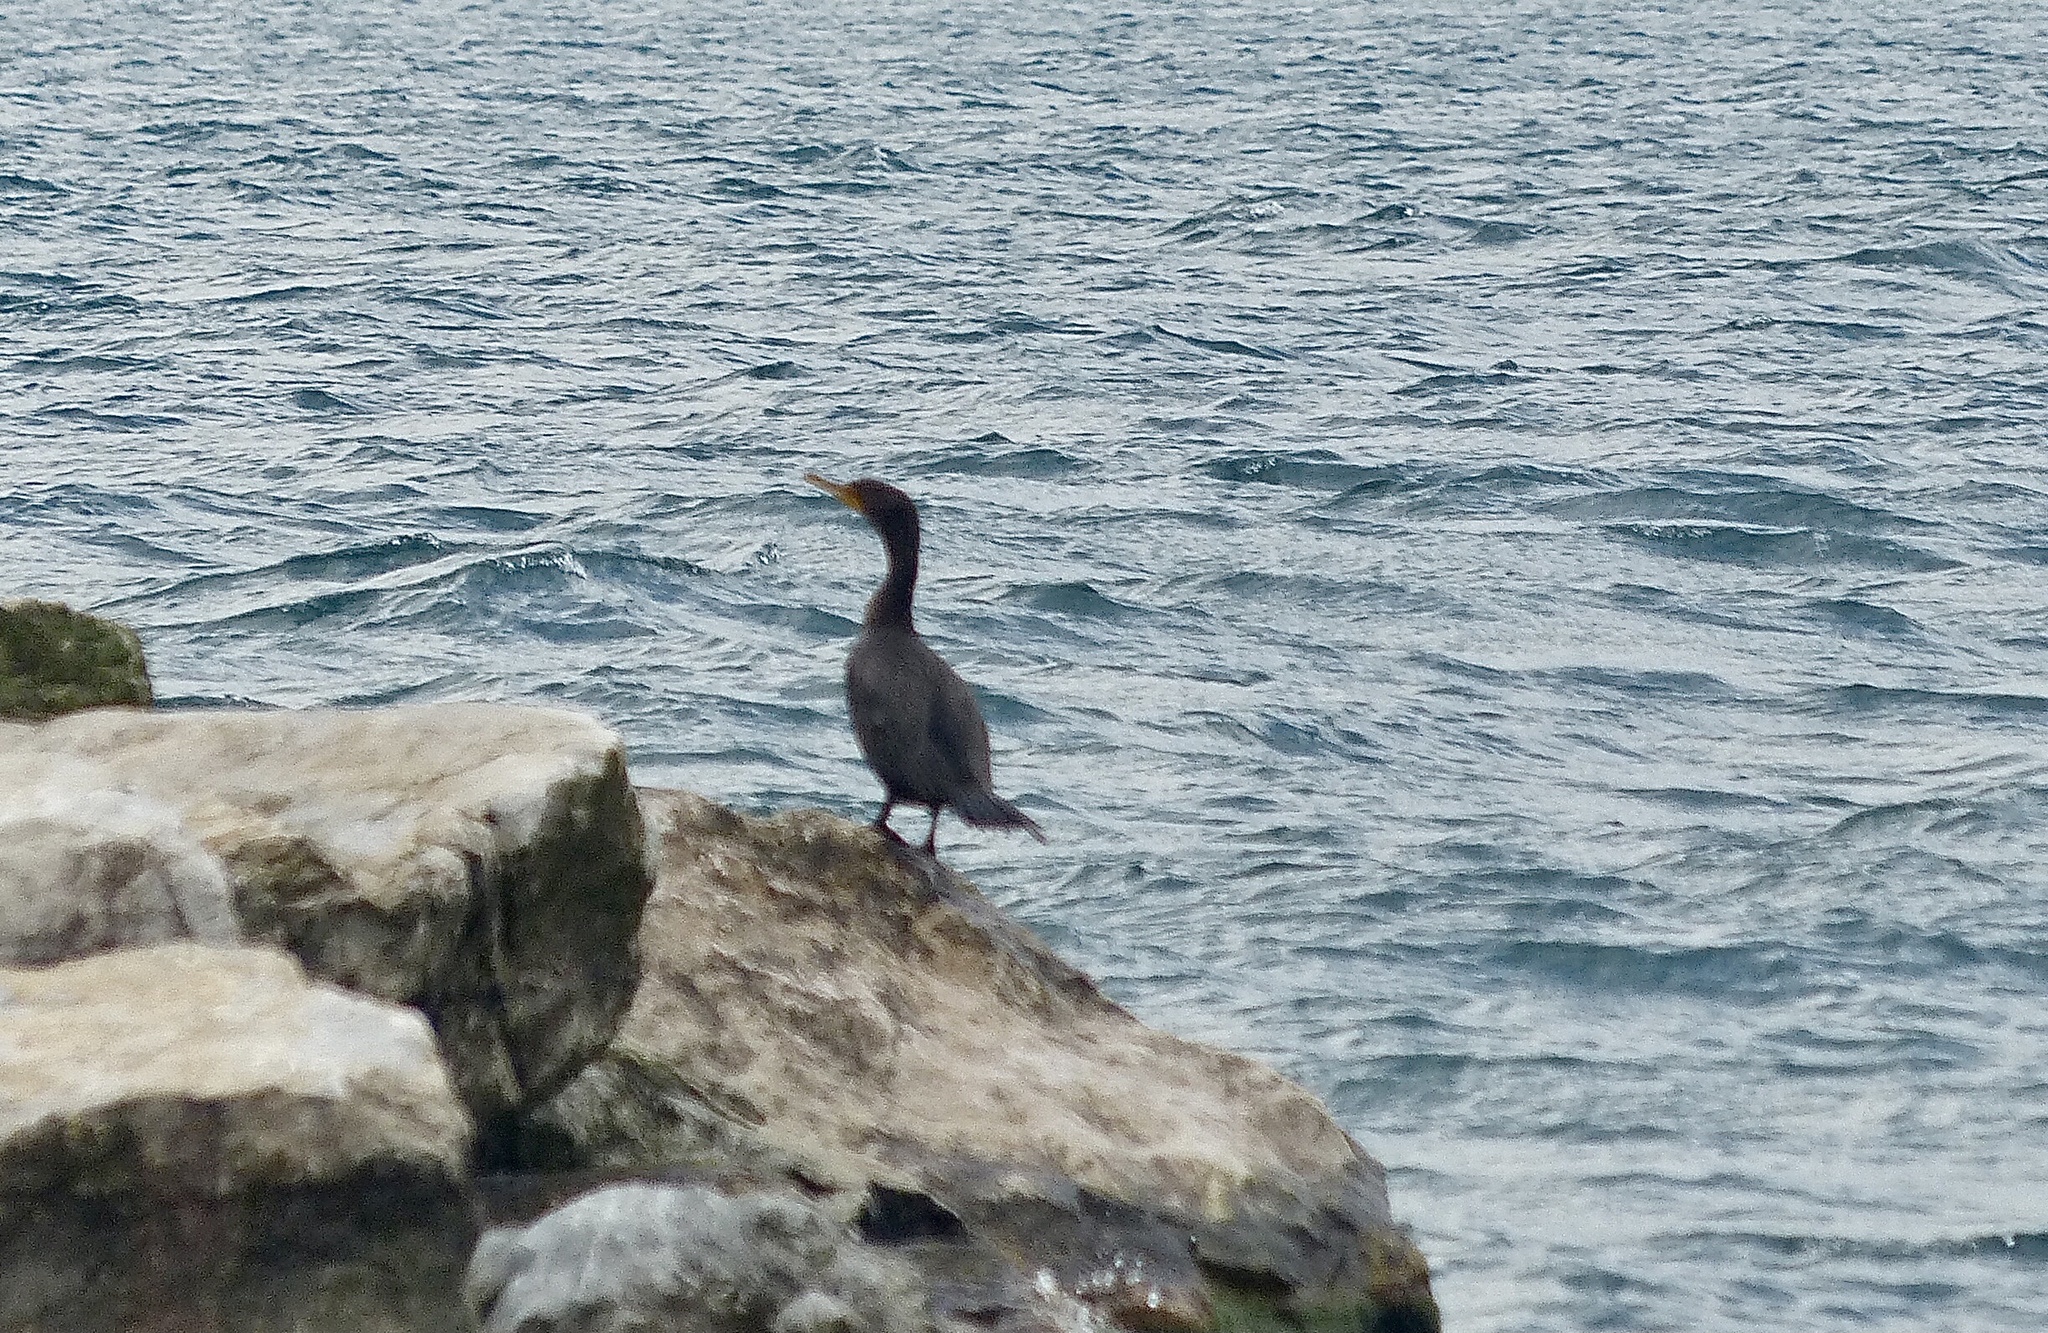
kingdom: Animalia
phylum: Chordata
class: Aves
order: Suliformes
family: Phalacrocoracidae
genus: Phalacrocorax
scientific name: Phalacrocorax auritus
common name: Double-crested cormorant
